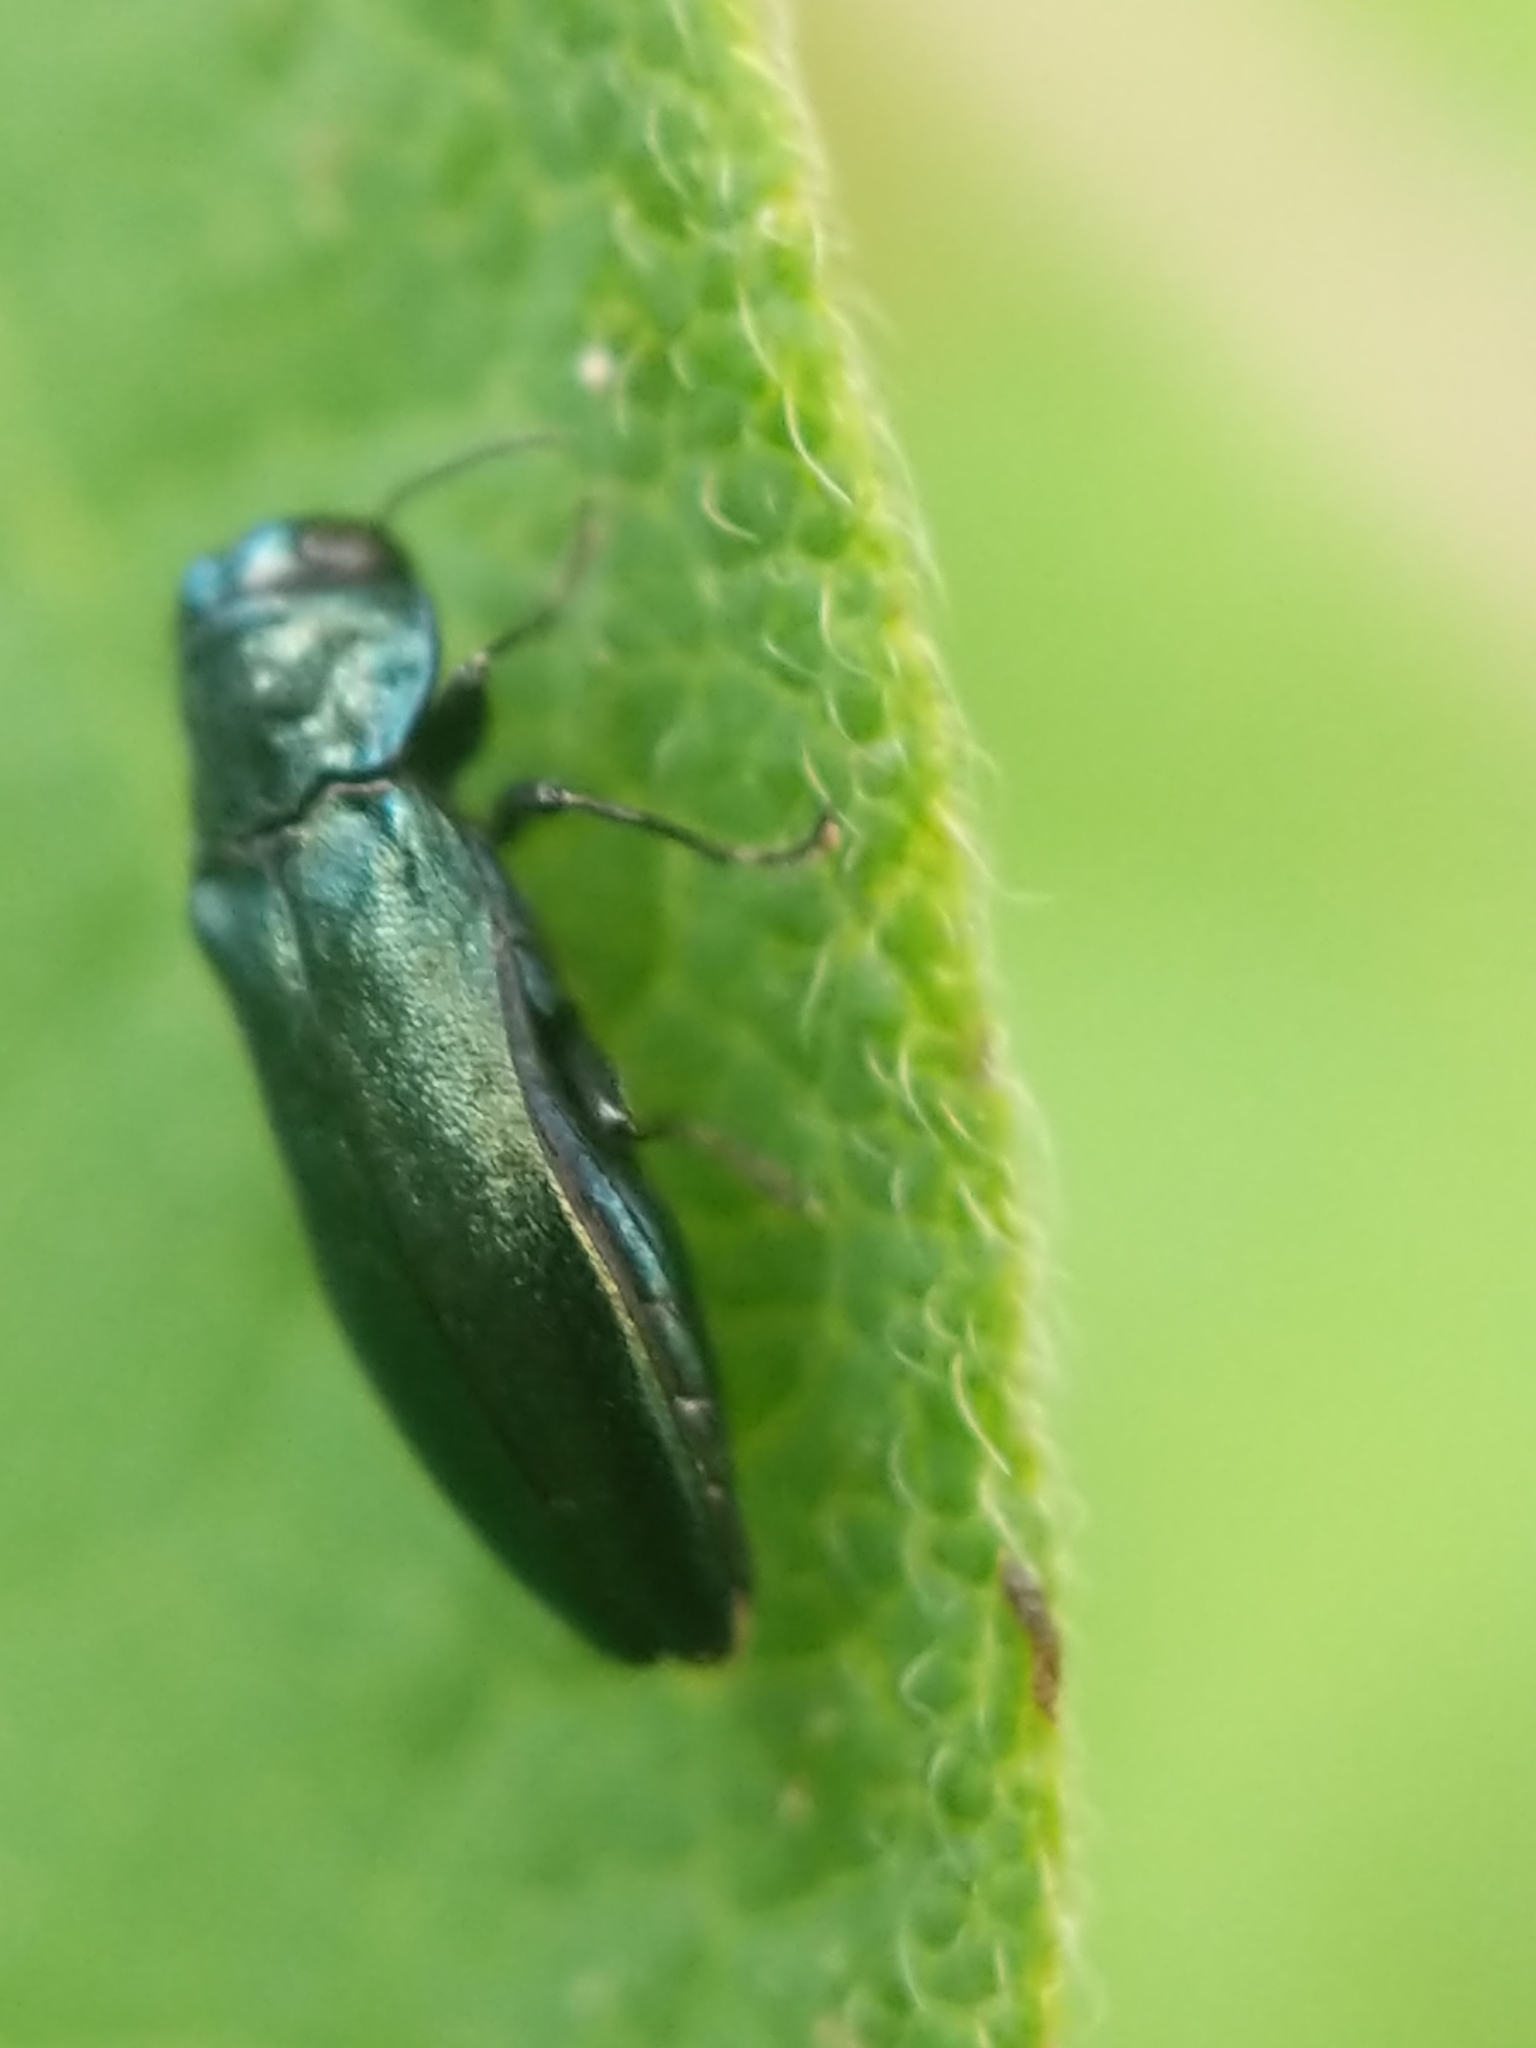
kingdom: Animalia
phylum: Arthropoda
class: Insecta
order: Coleoptera
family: Buprestidae
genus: Agrilus
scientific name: Agrilus cyanescens
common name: Bluish borer beetle
